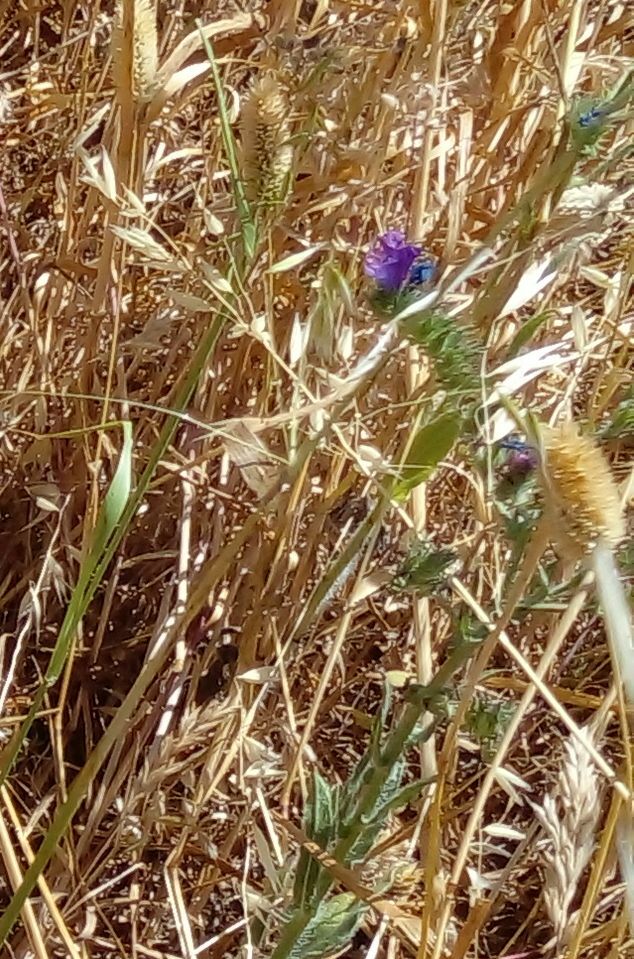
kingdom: Plantae
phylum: Tracheophyta
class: Magnoliopsida
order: Boraginales
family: Boraginaceae
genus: Echium
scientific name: Echium plantagineum
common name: Purple viper's-bugloss
